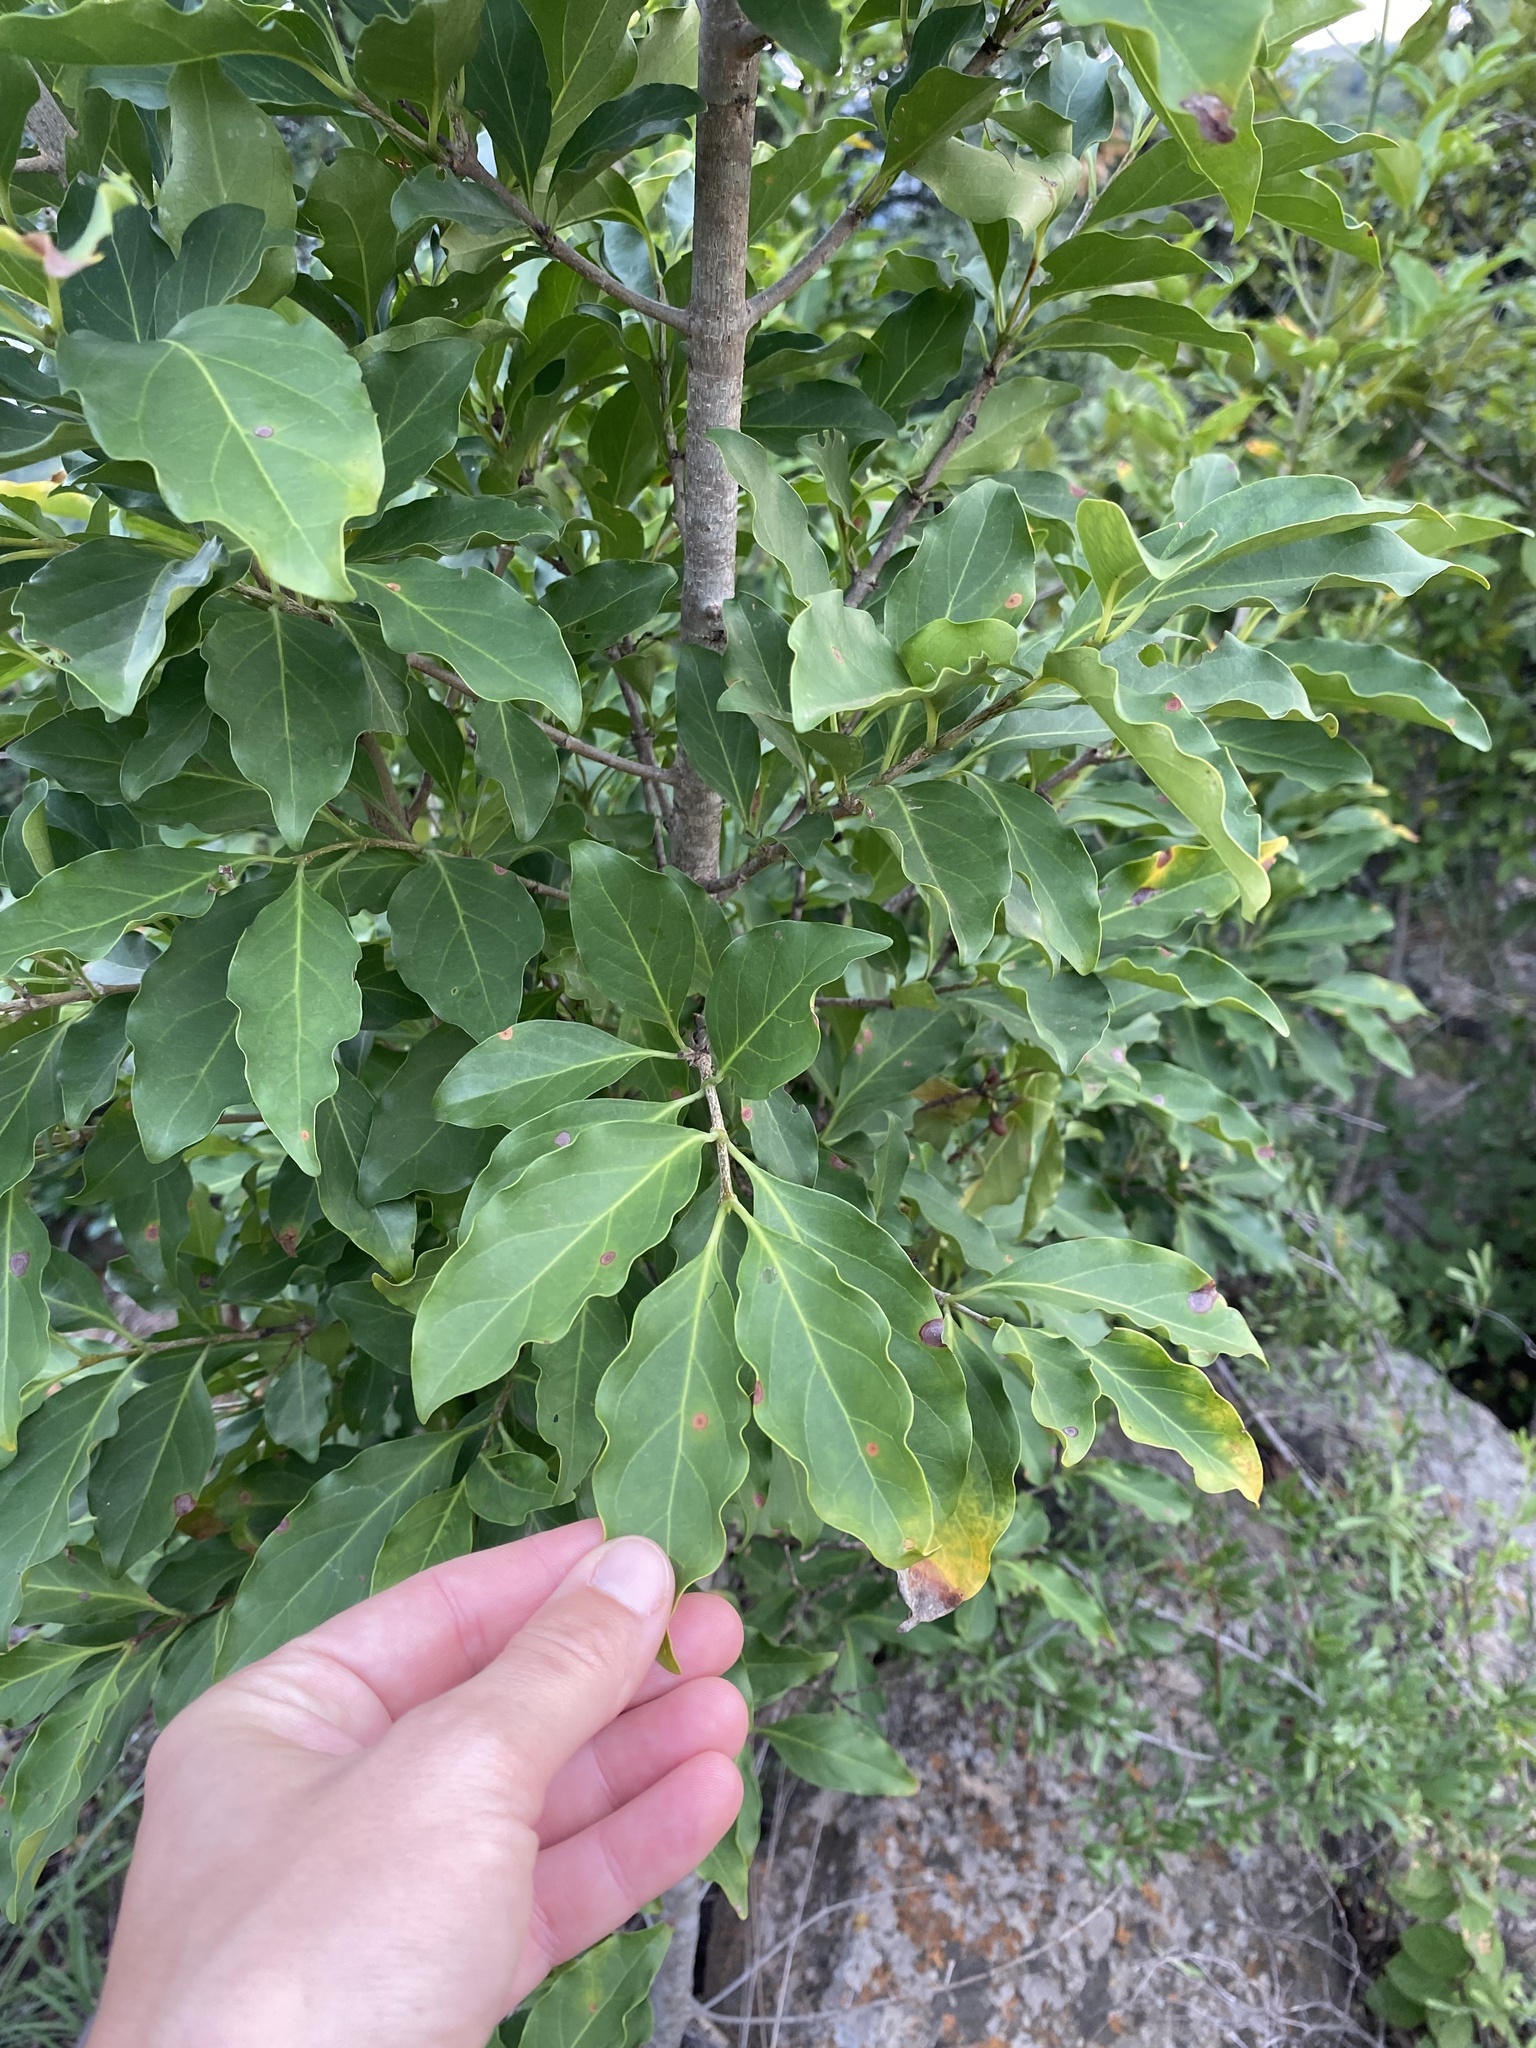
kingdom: Plantae
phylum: Tracheophyta
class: Magnoliopsida
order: Gentianales
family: Rubiaceae
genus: Canthium
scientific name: Canthium inerme
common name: Unarmed turkey-berry
